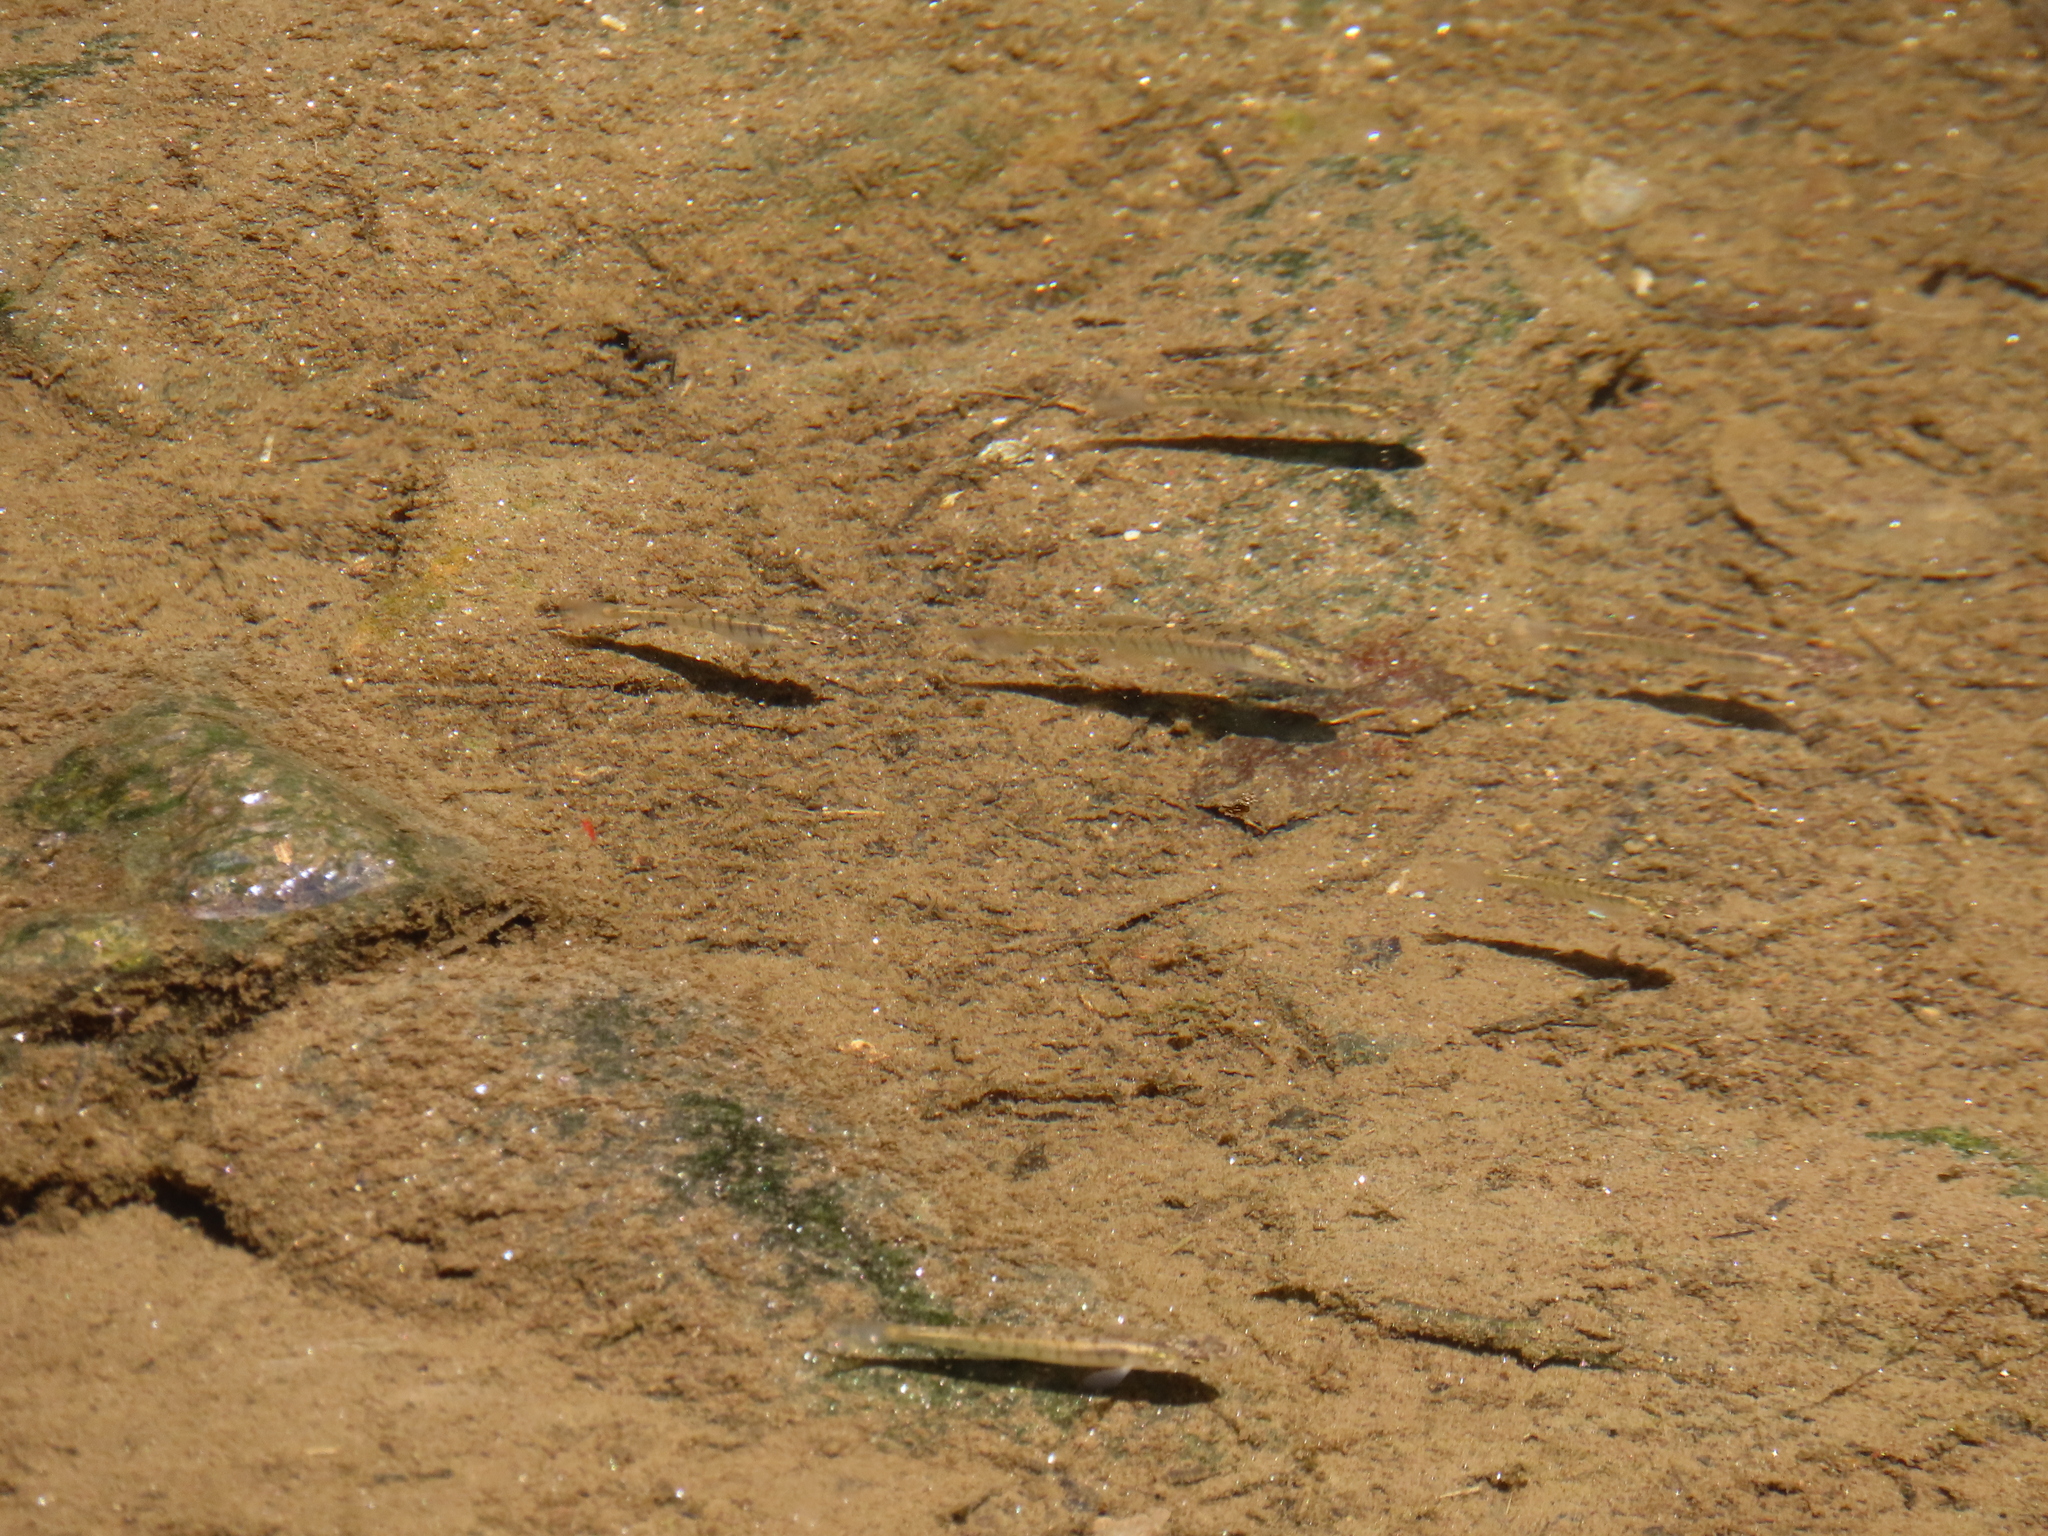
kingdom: Animalia
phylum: Chordata
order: Cyprinodontiformes
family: Fundulidae
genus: Fundulus
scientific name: Fundulus diaphanus
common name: Banded killifish
